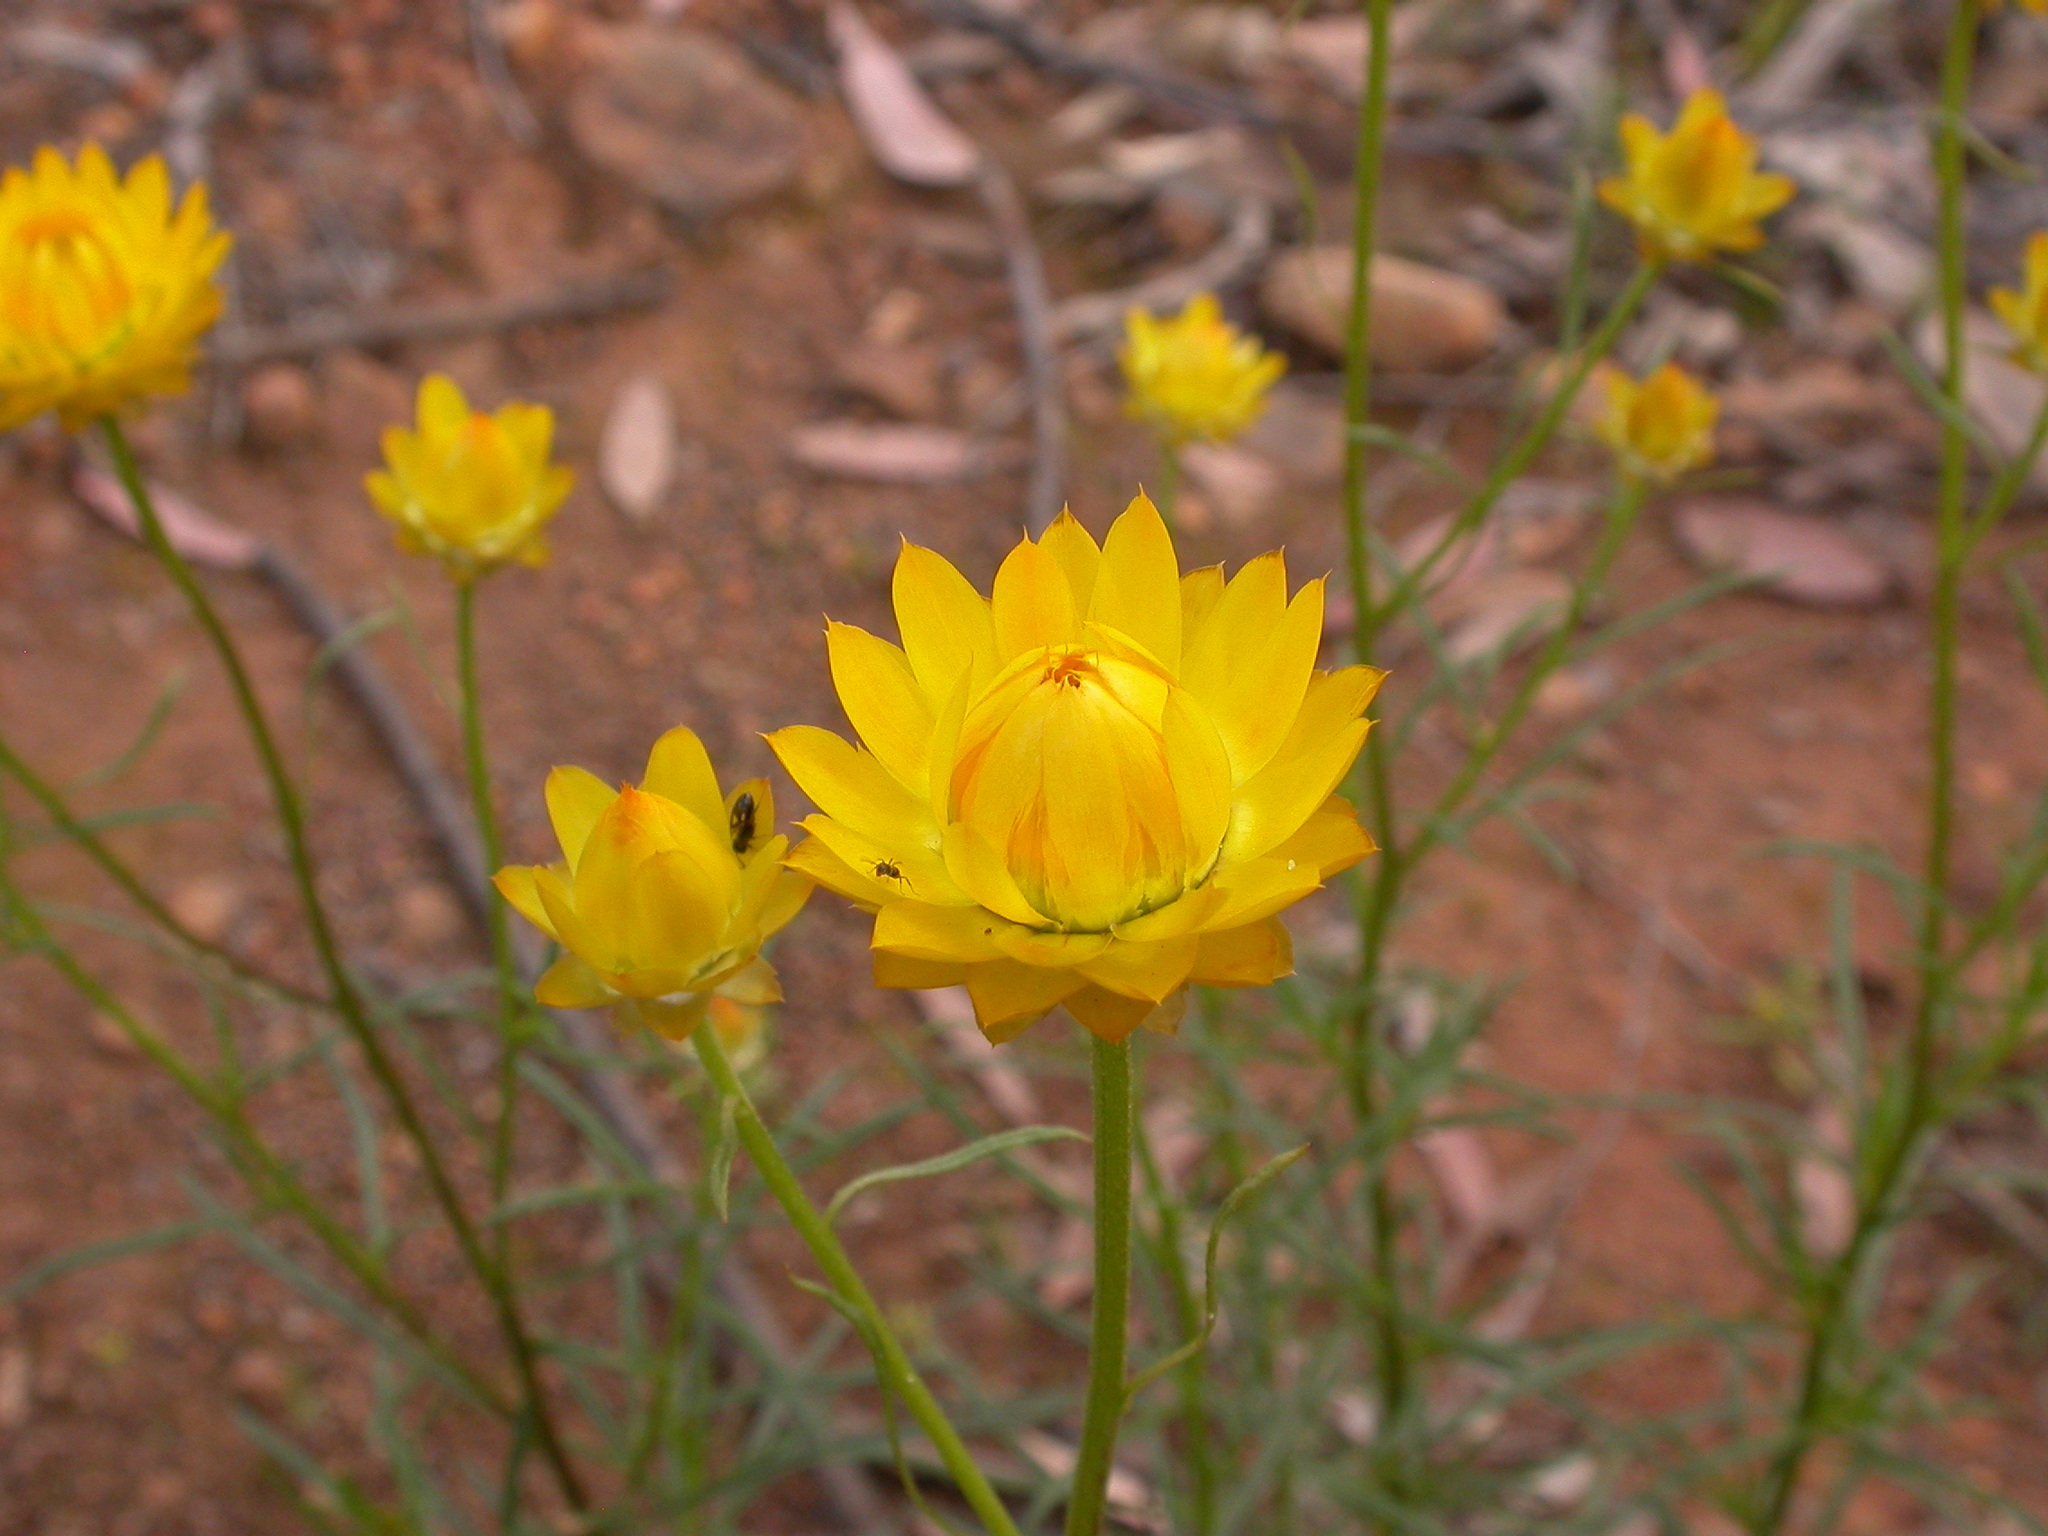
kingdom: Plantae
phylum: Tracheophyta
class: Magnoliopsida
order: Asterales
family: Asteraceae
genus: Xerochrysum
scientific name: Xerochrysum viscosum
